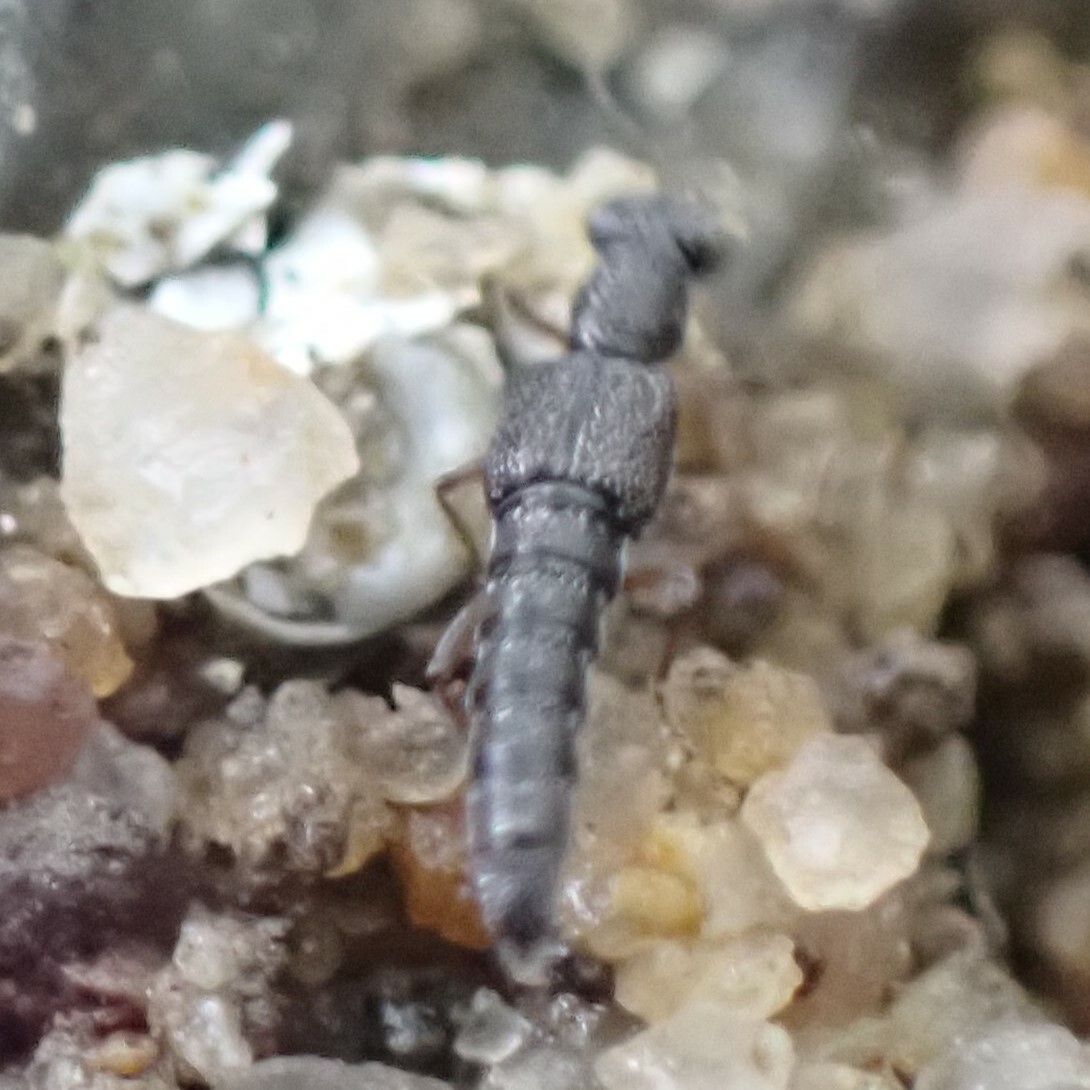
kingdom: Animalia
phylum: Arthropoda
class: Insecta
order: Coleoptera
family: Staphylinidae
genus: Stenus
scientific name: Stenus
